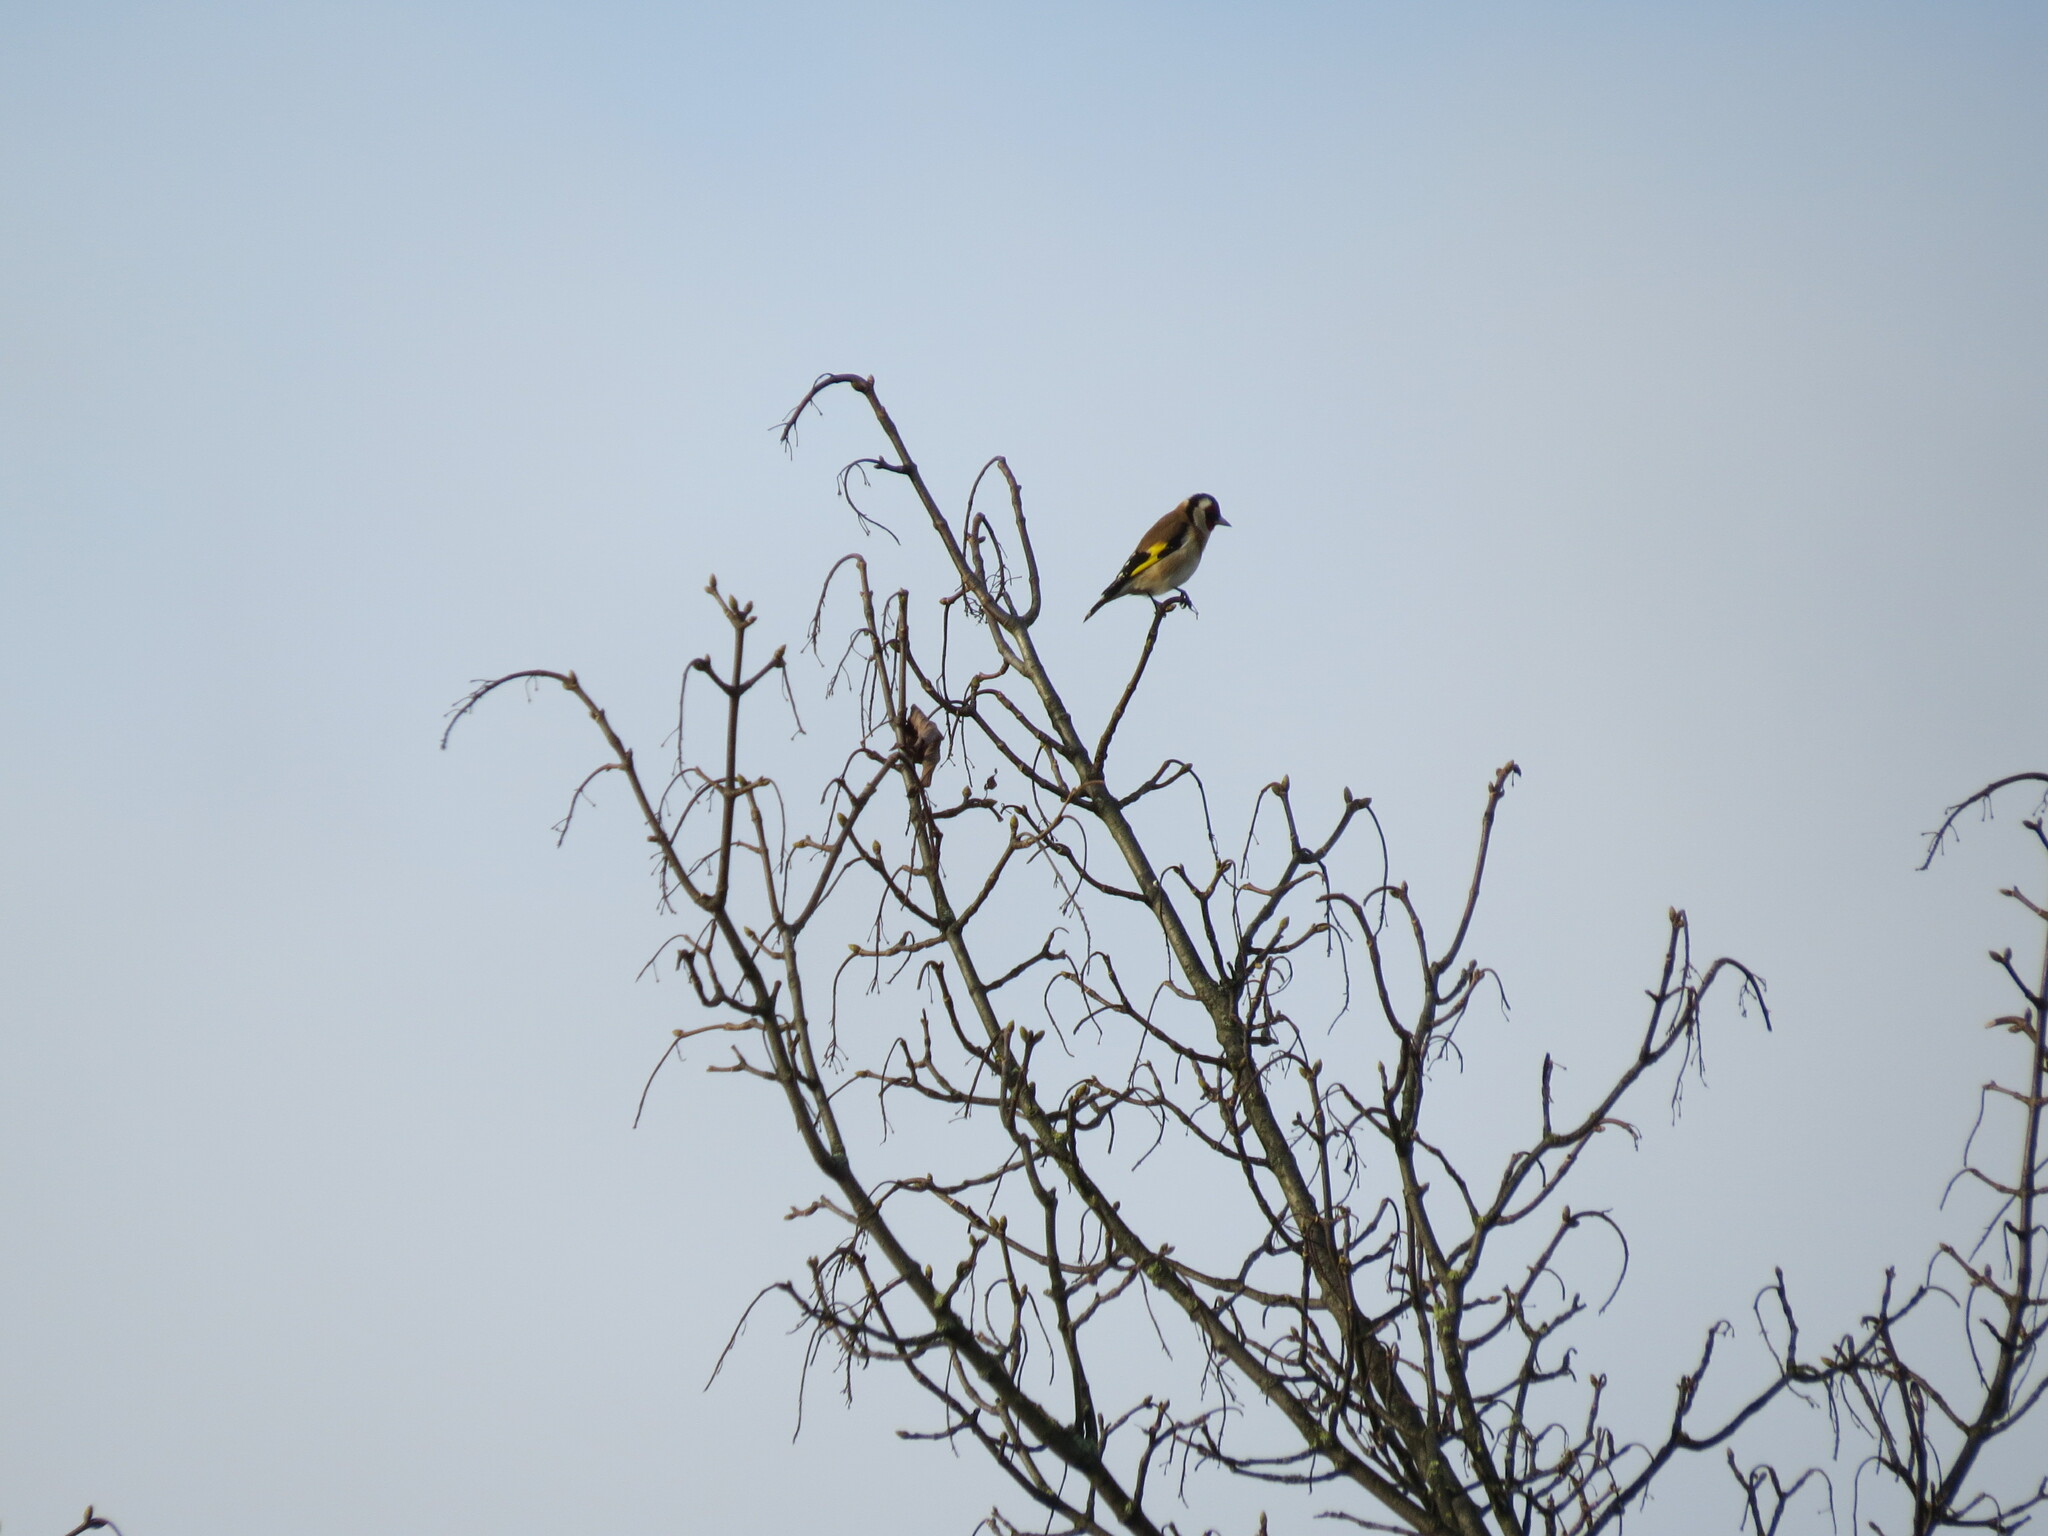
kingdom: Animalia
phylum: Chordata
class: Aves
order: Passeriformes
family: Fringillidae
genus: Carduelis
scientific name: Carduelis carduelis
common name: European goldfinch
